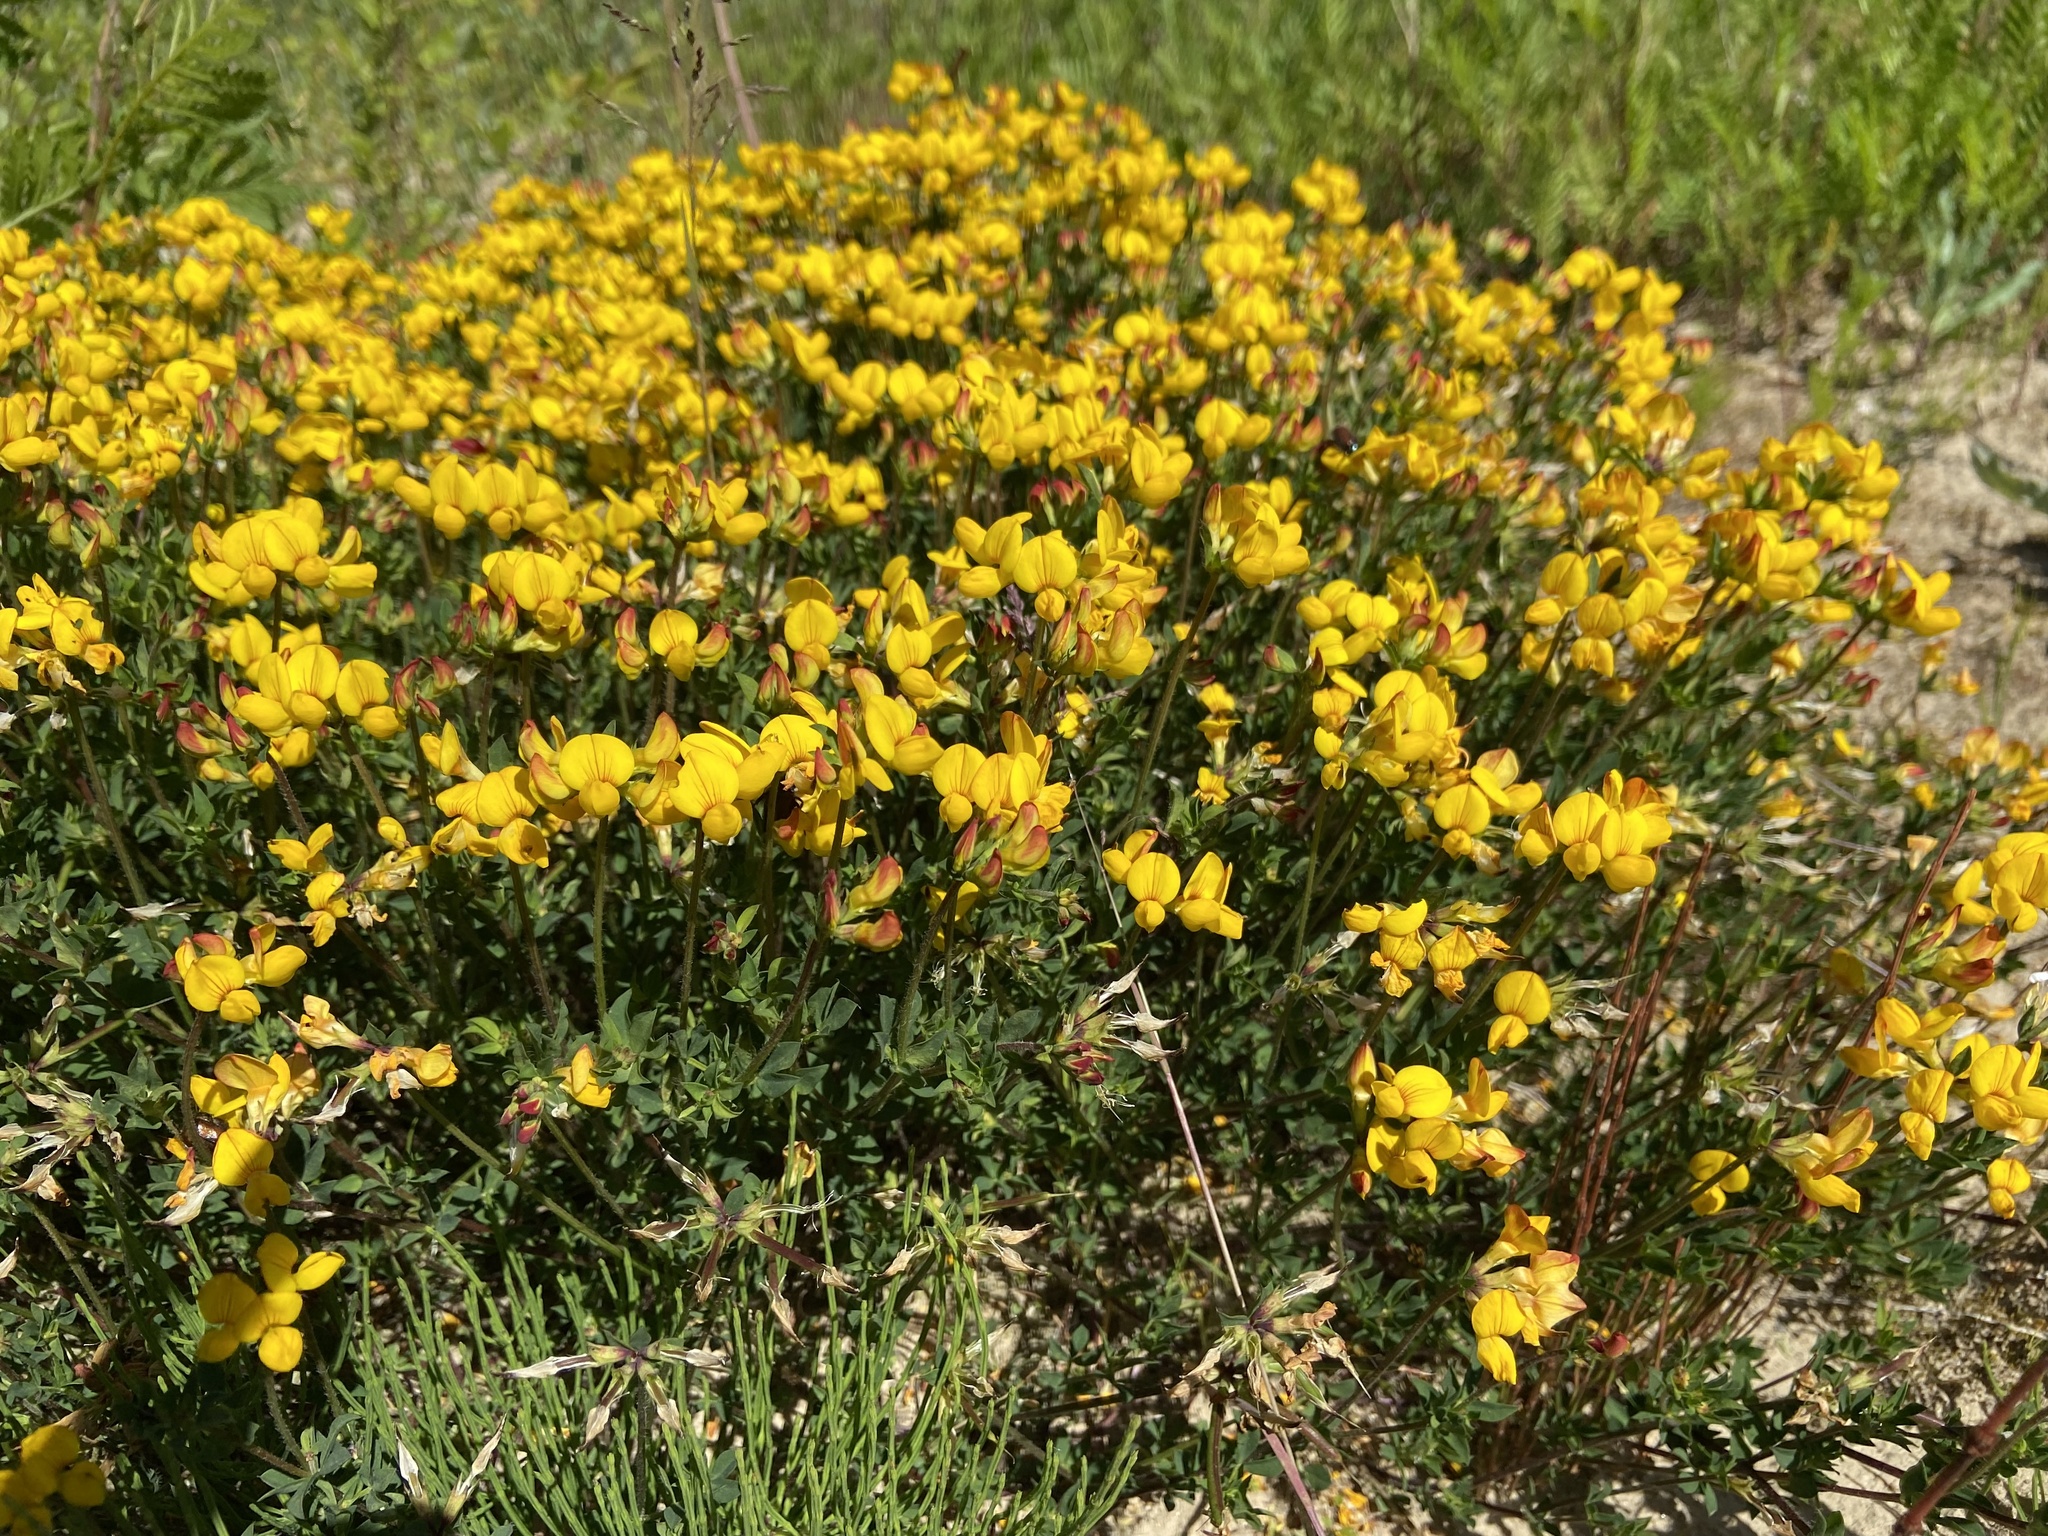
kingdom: Plantae
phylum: Tracheophyta
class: Magnoliopsida
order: Fabales
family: Fabaceae
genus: Lotus
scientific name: Lotus corniculatus
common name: Common bird's-foot-trefoil
